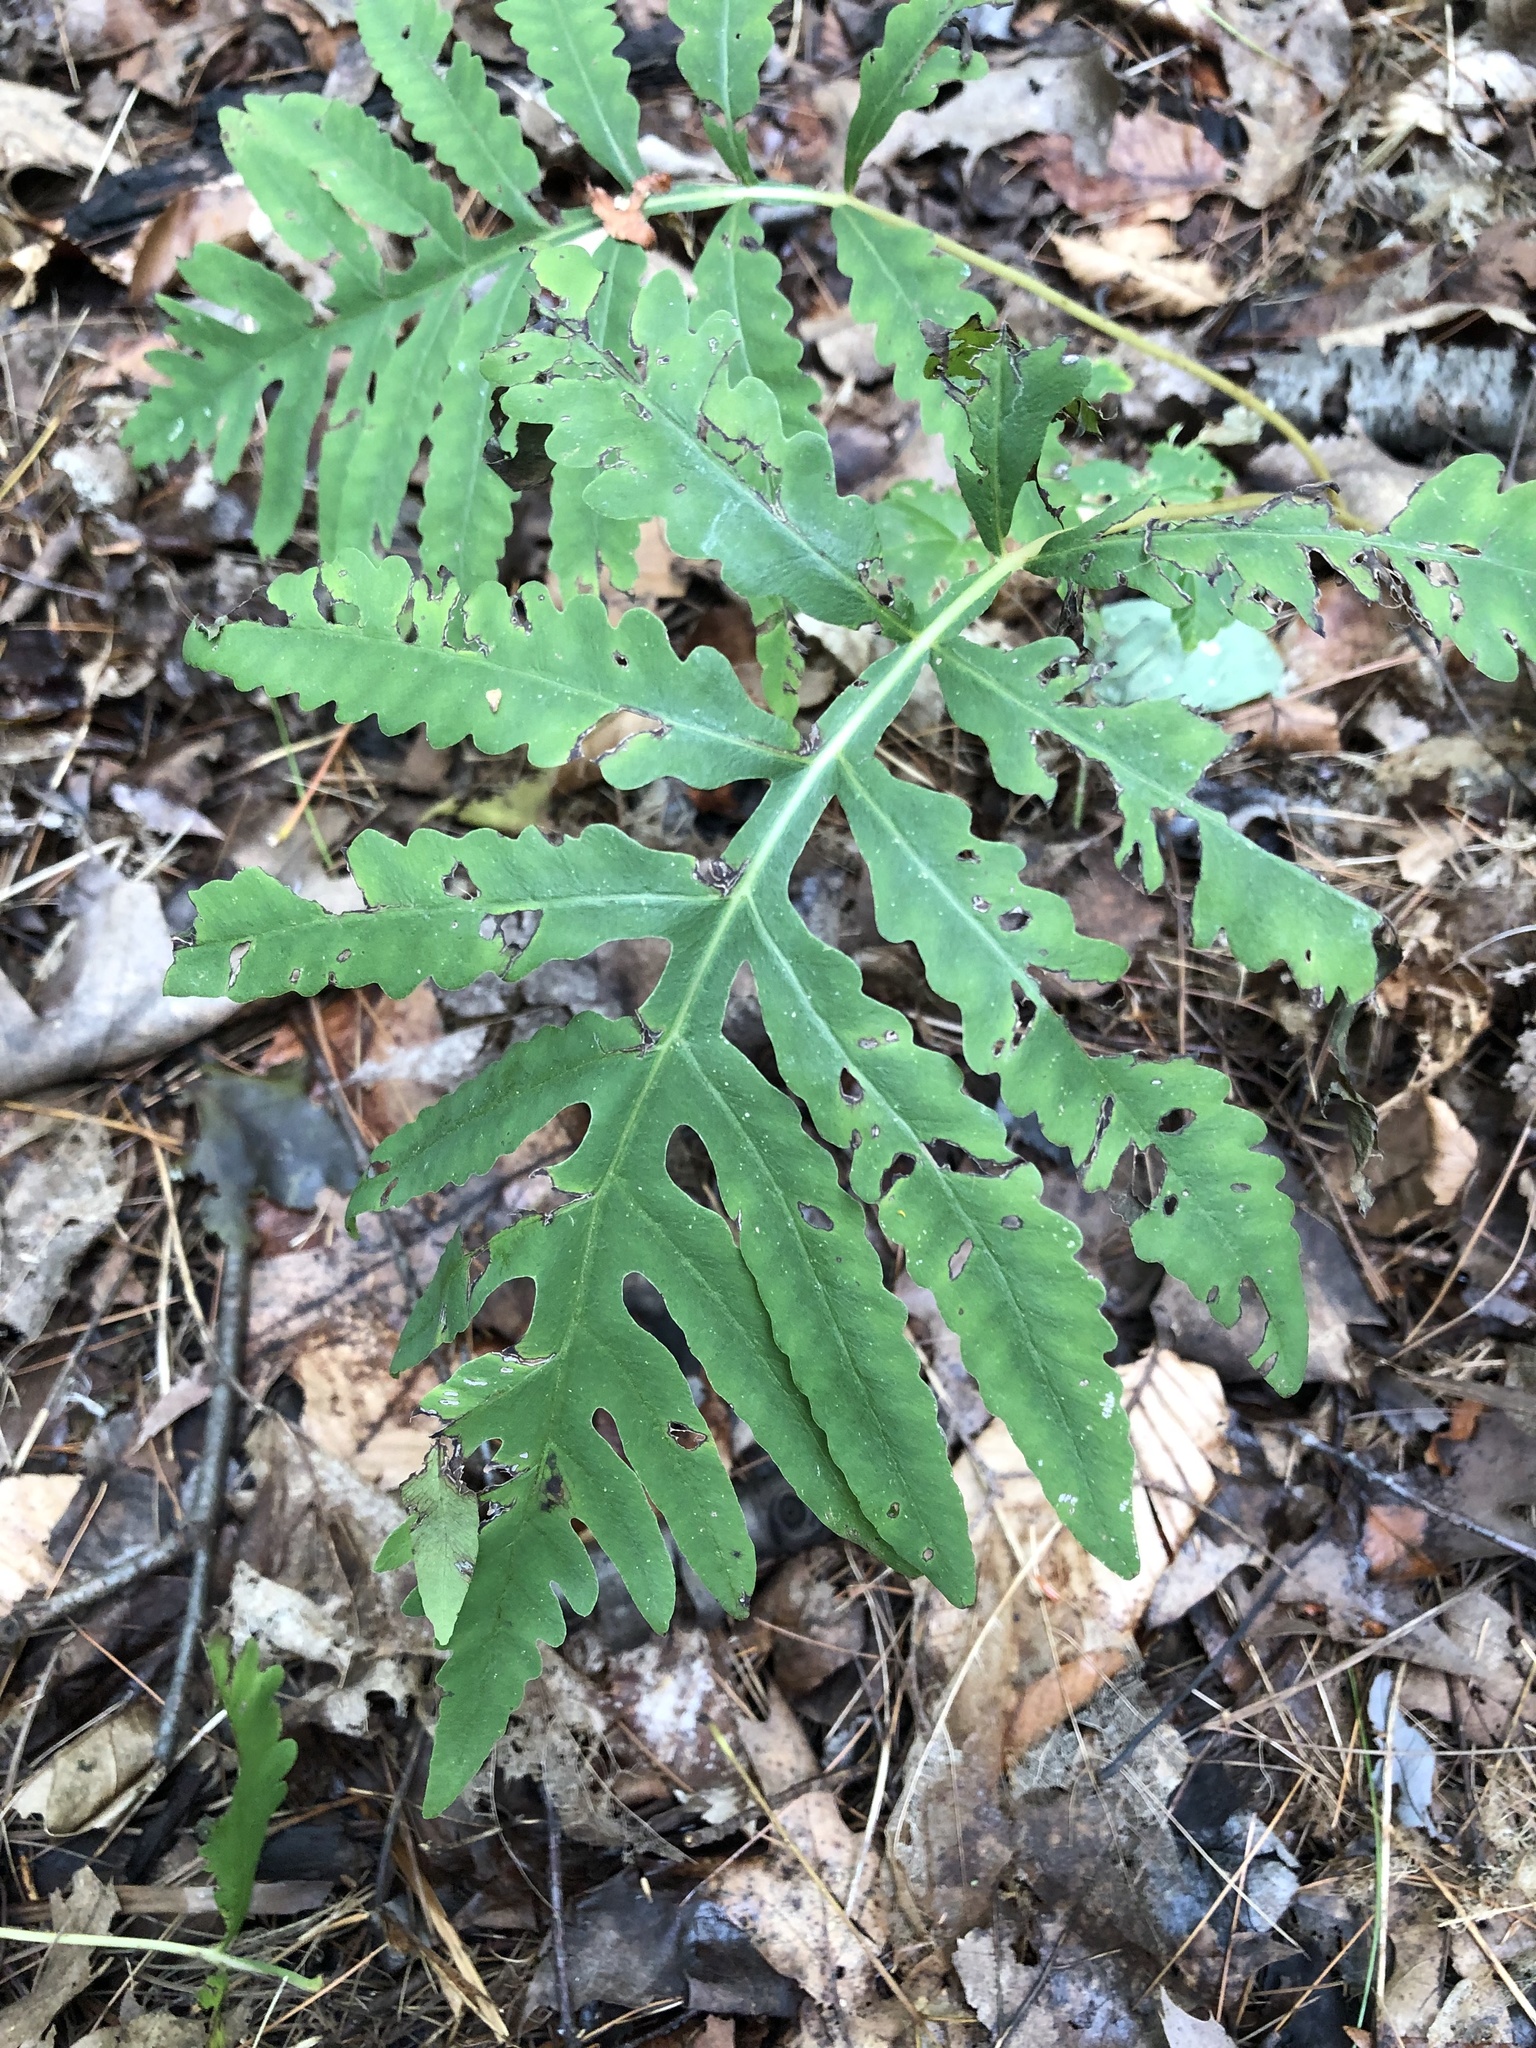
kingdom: Plantae
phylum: Tracheophyta
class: Polypodiopsida
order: Polypodiales
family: Onocleaceae
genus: Onoclea
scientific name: Onoclea sensibilis
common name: Sensitive fern
